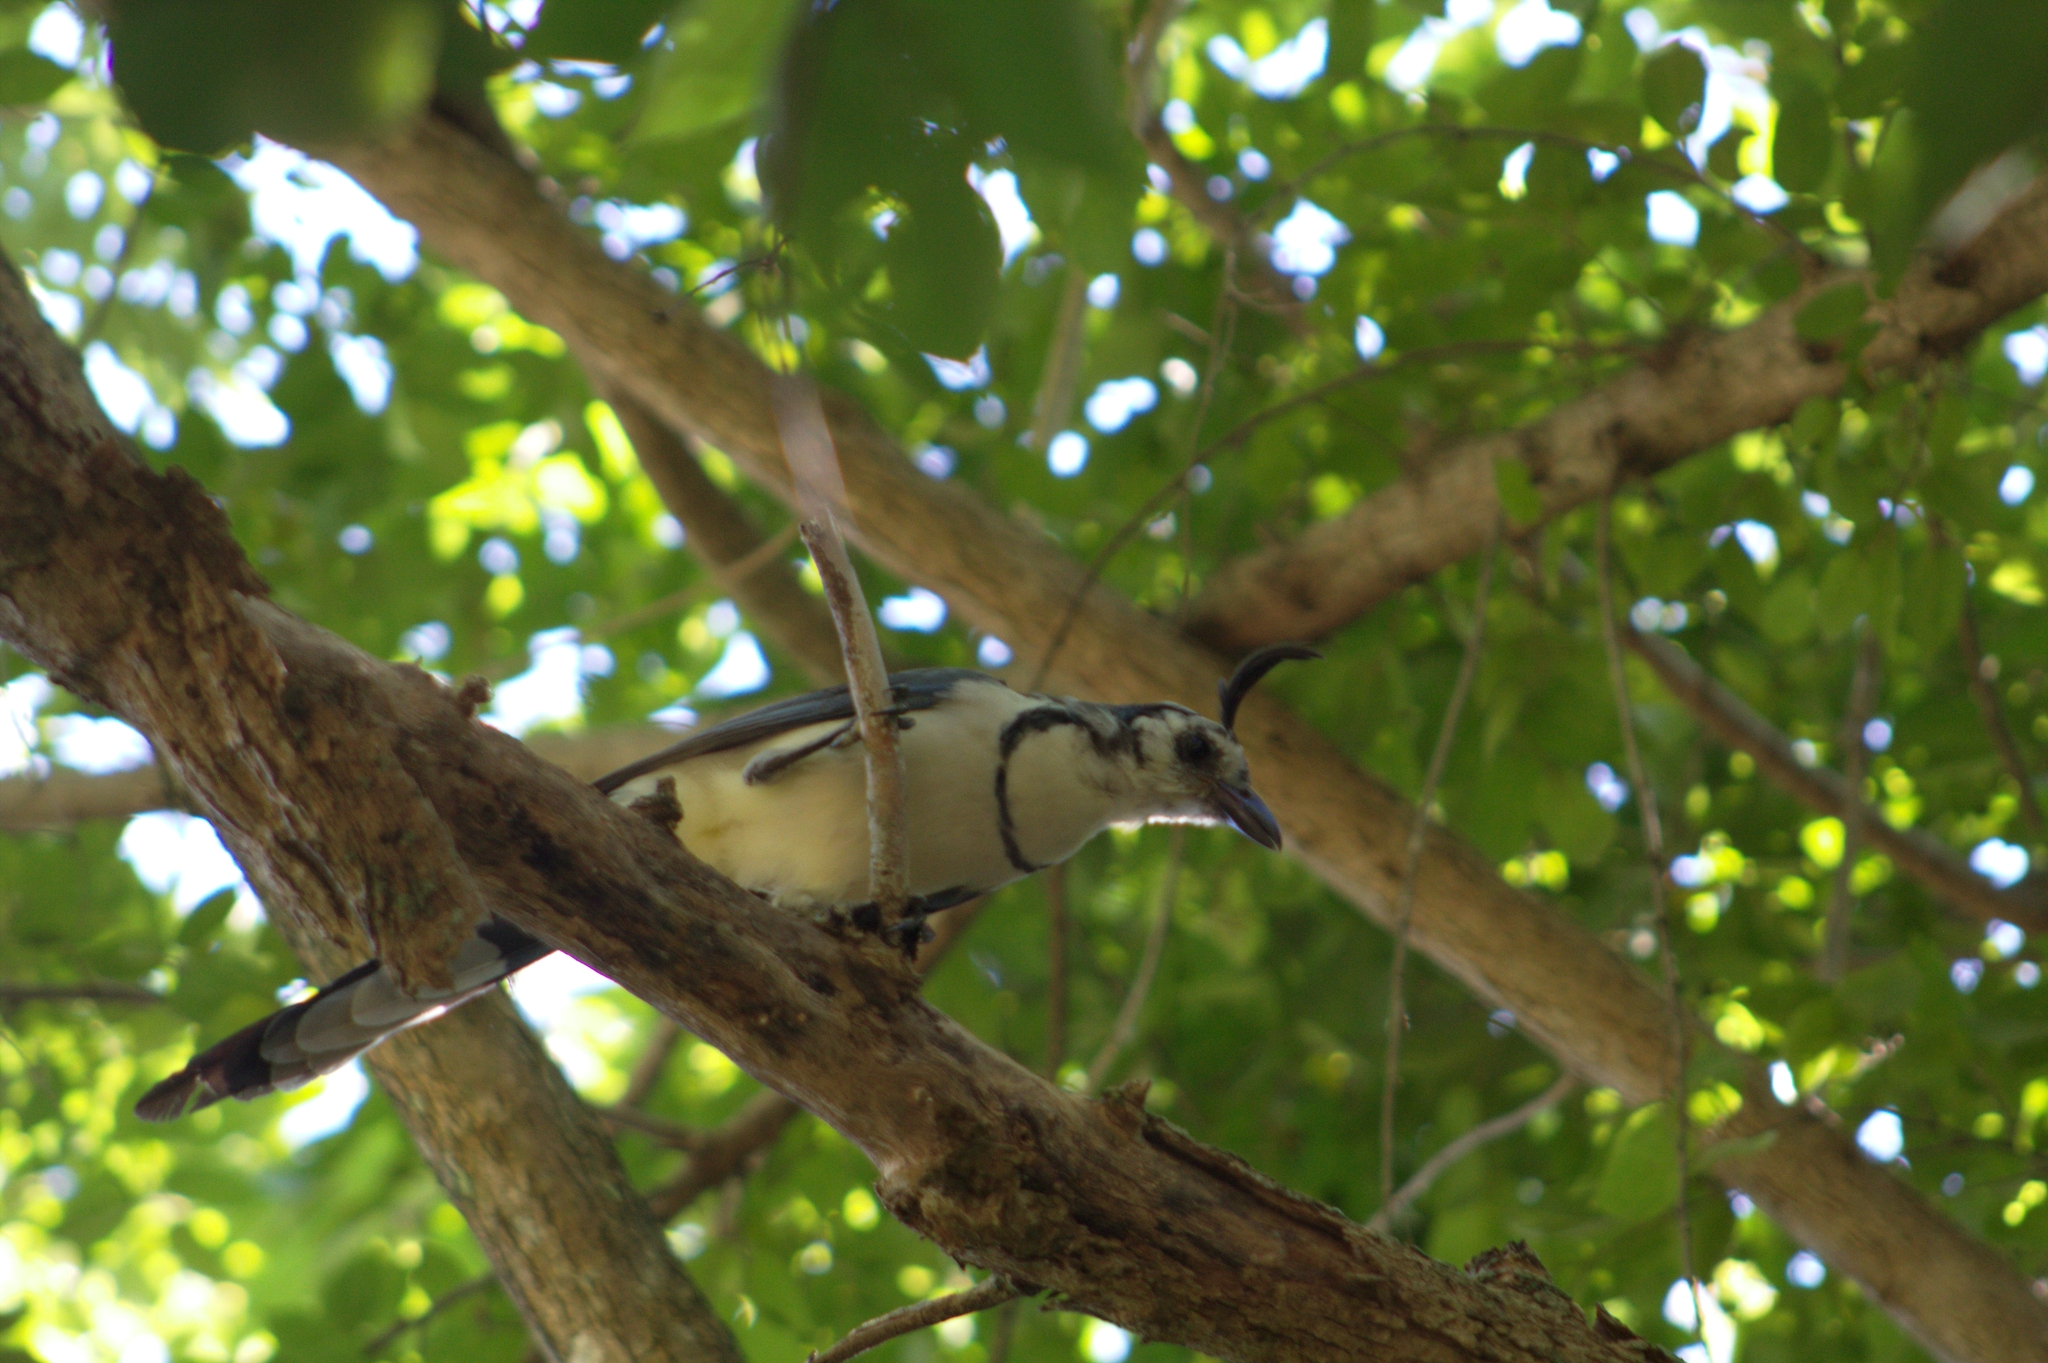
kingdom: Animalia
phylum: Chordata
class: Aves
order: Passeriformes
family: Corvidae
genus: Calocitta
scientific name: Calocitta formosa
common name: White-throated magpie-jay
